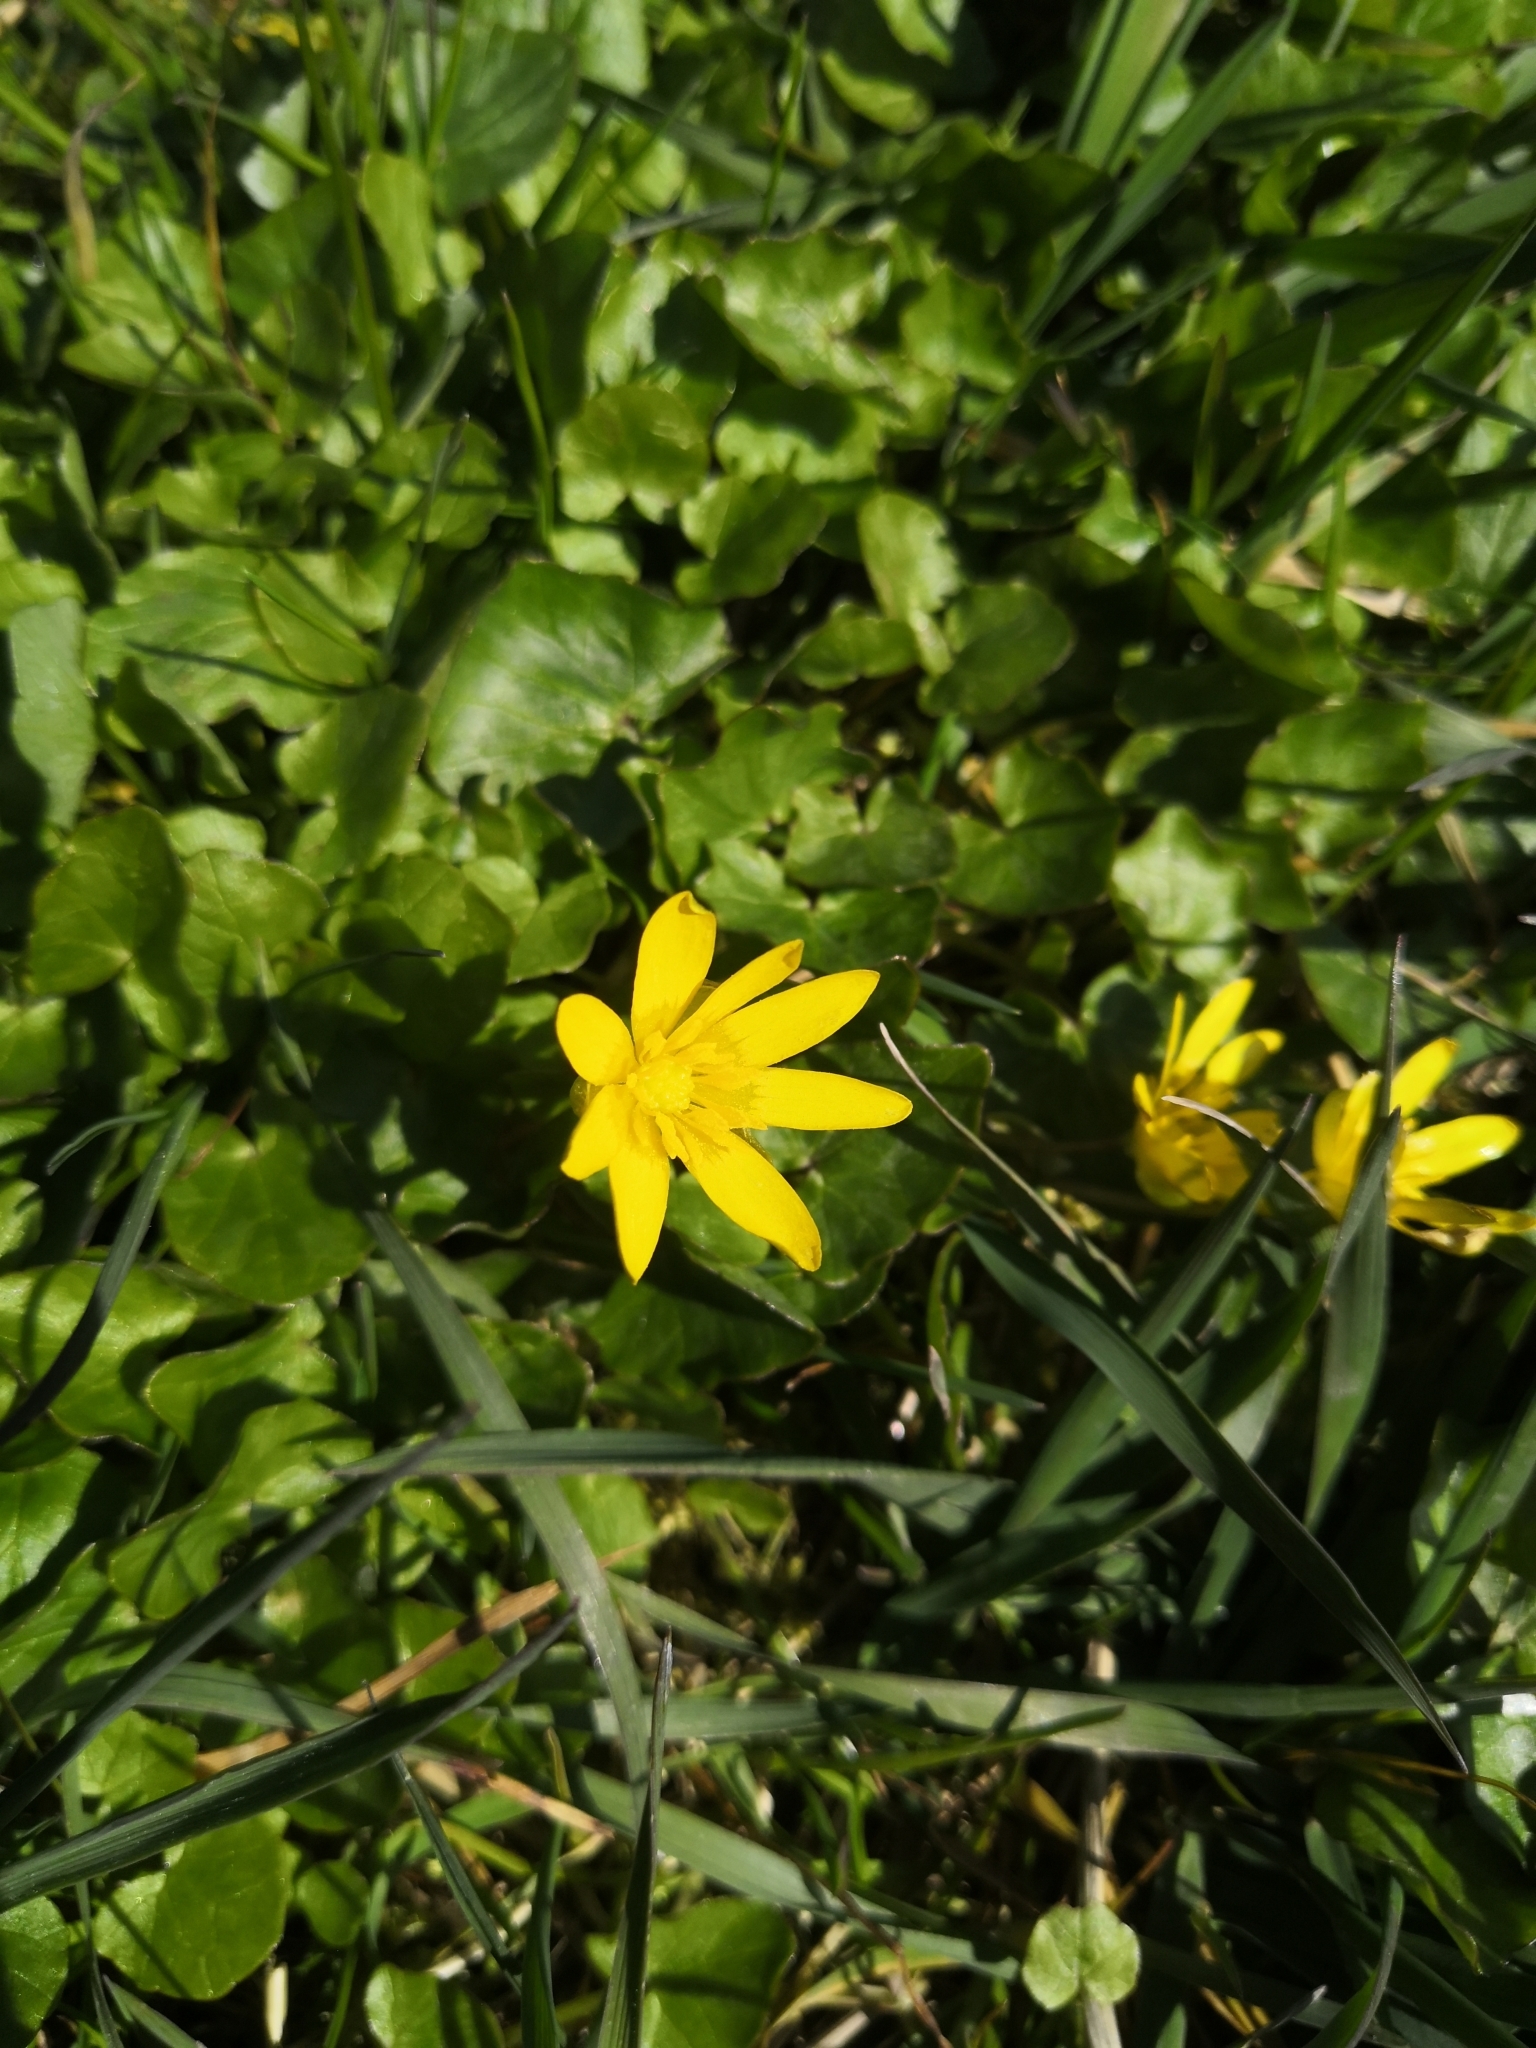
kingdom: Plantae
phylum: Tracheophyta
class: Magnoliopsida
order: Ranunculales
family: Ranunculaceae
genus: Ficaria
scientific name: Ficaria verna
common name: Lesser celandine
